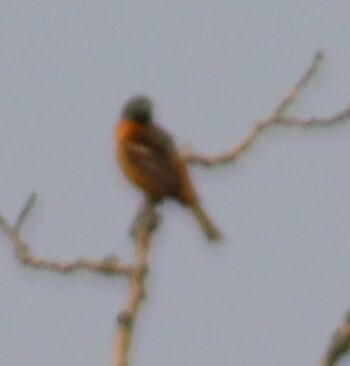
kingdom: Animalia
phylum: Chordata
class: Aves
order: Passeriformes
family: Icteridae
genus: Icterus
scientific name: Icterus galbula
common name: Baltimore oriole
